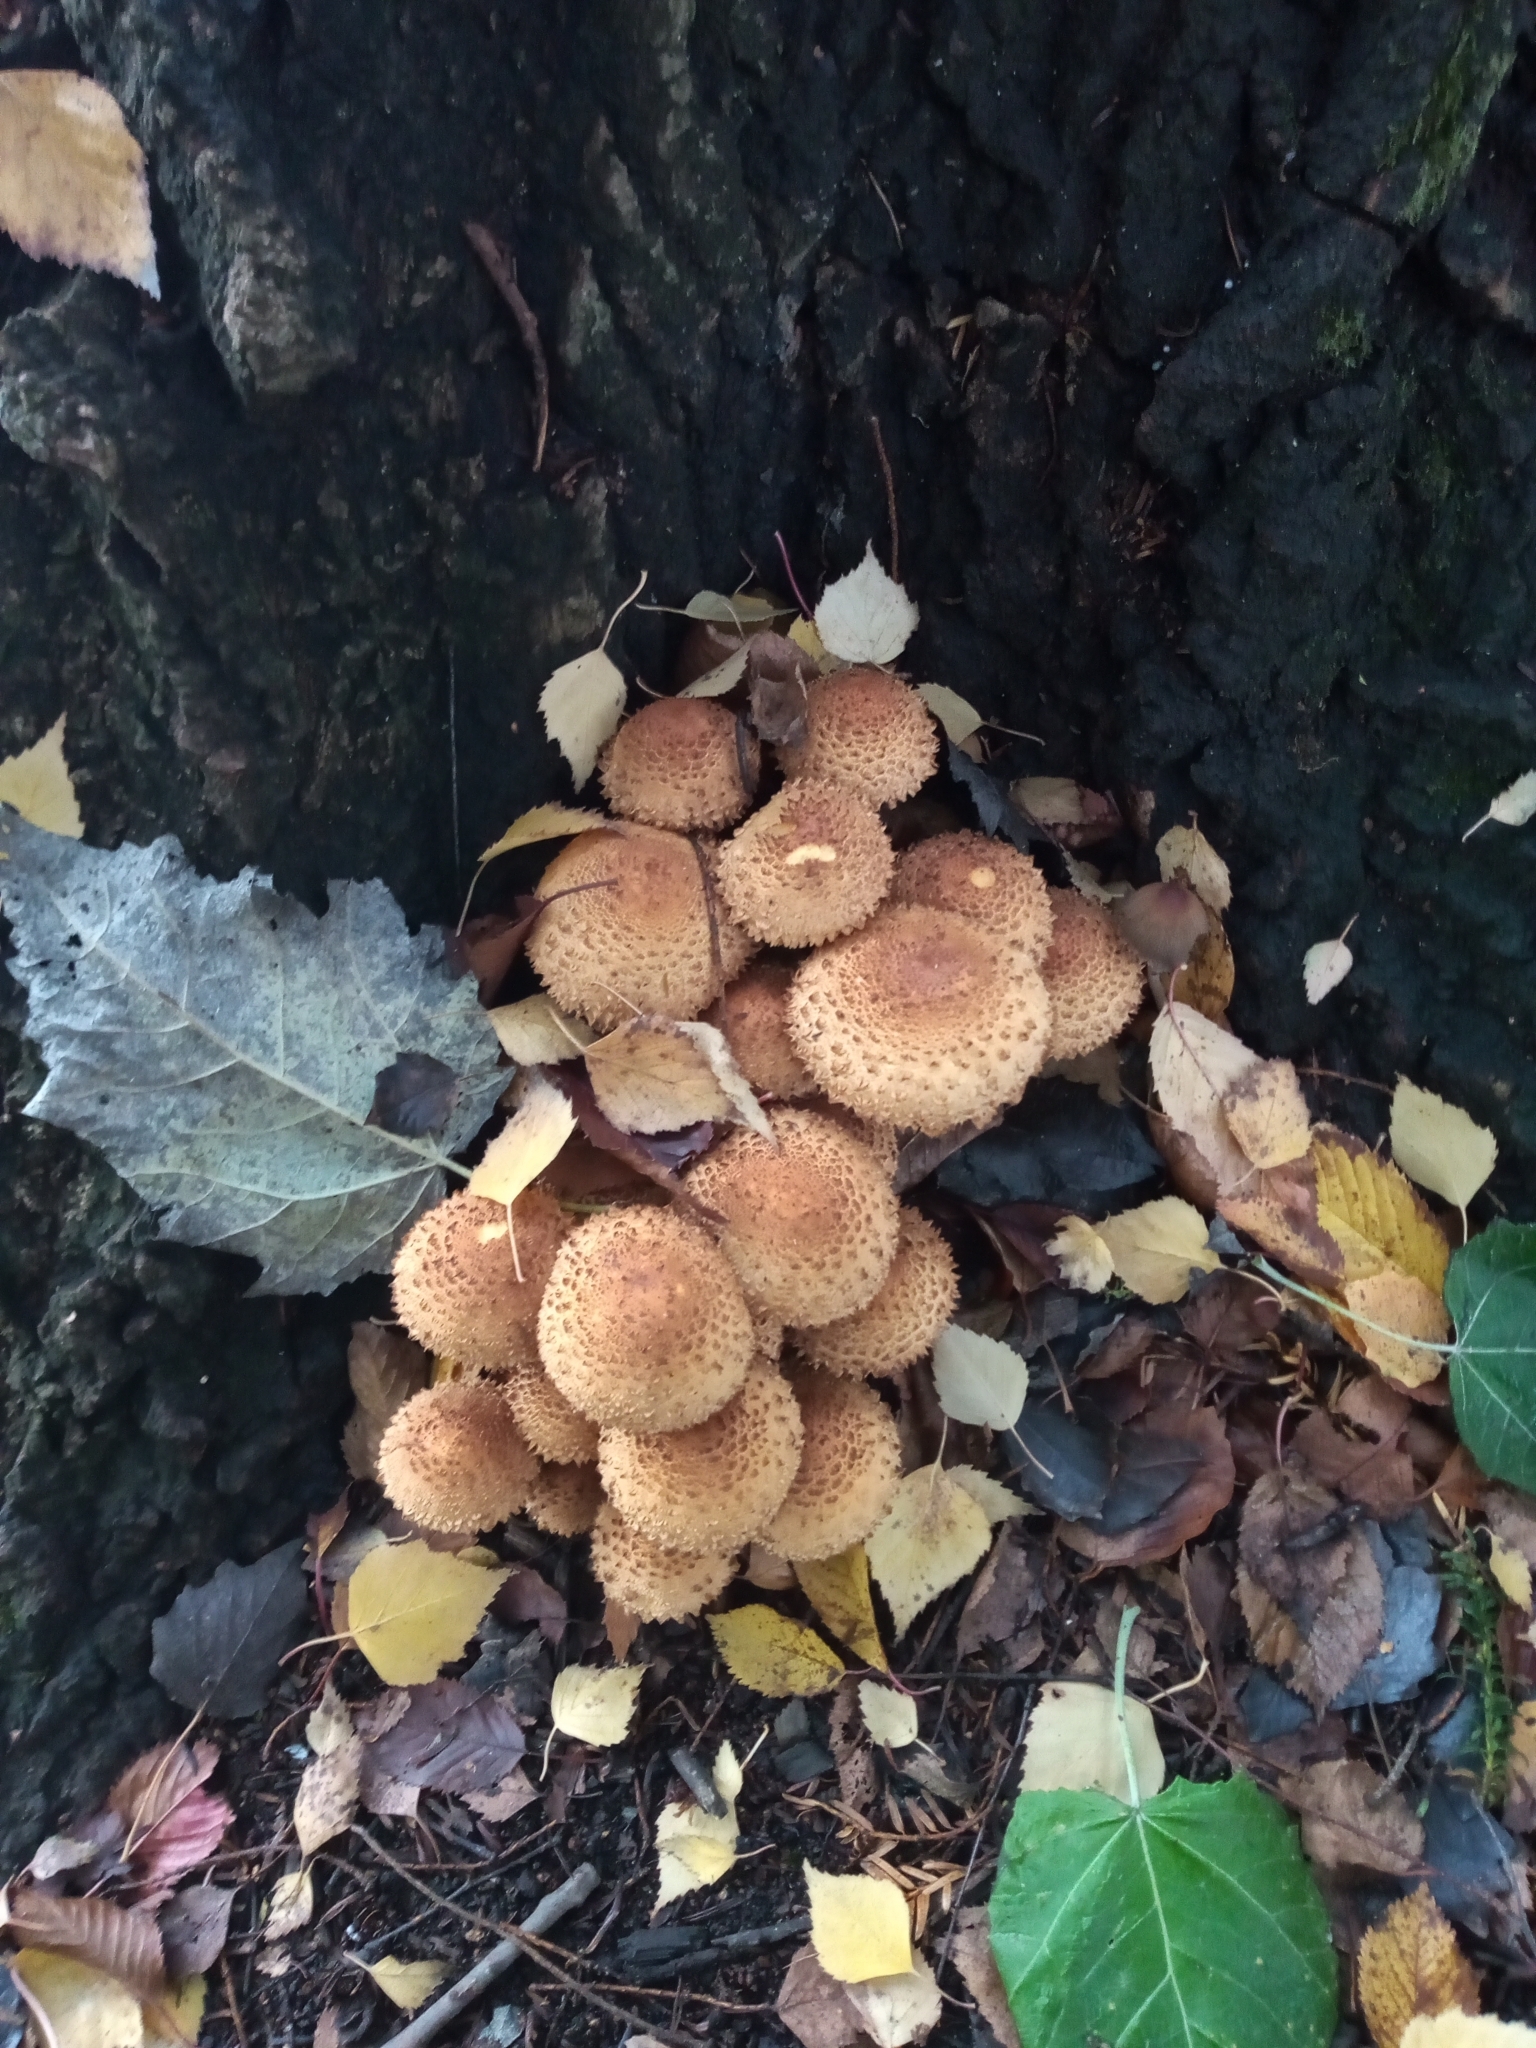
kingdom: Fungi
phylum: Basidiomycota
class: Agaricomycetes
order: Agaricales
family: Strophariaceae
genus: Pholiota
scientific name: Pholiota squarrosa
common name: Shaggy pholiota
